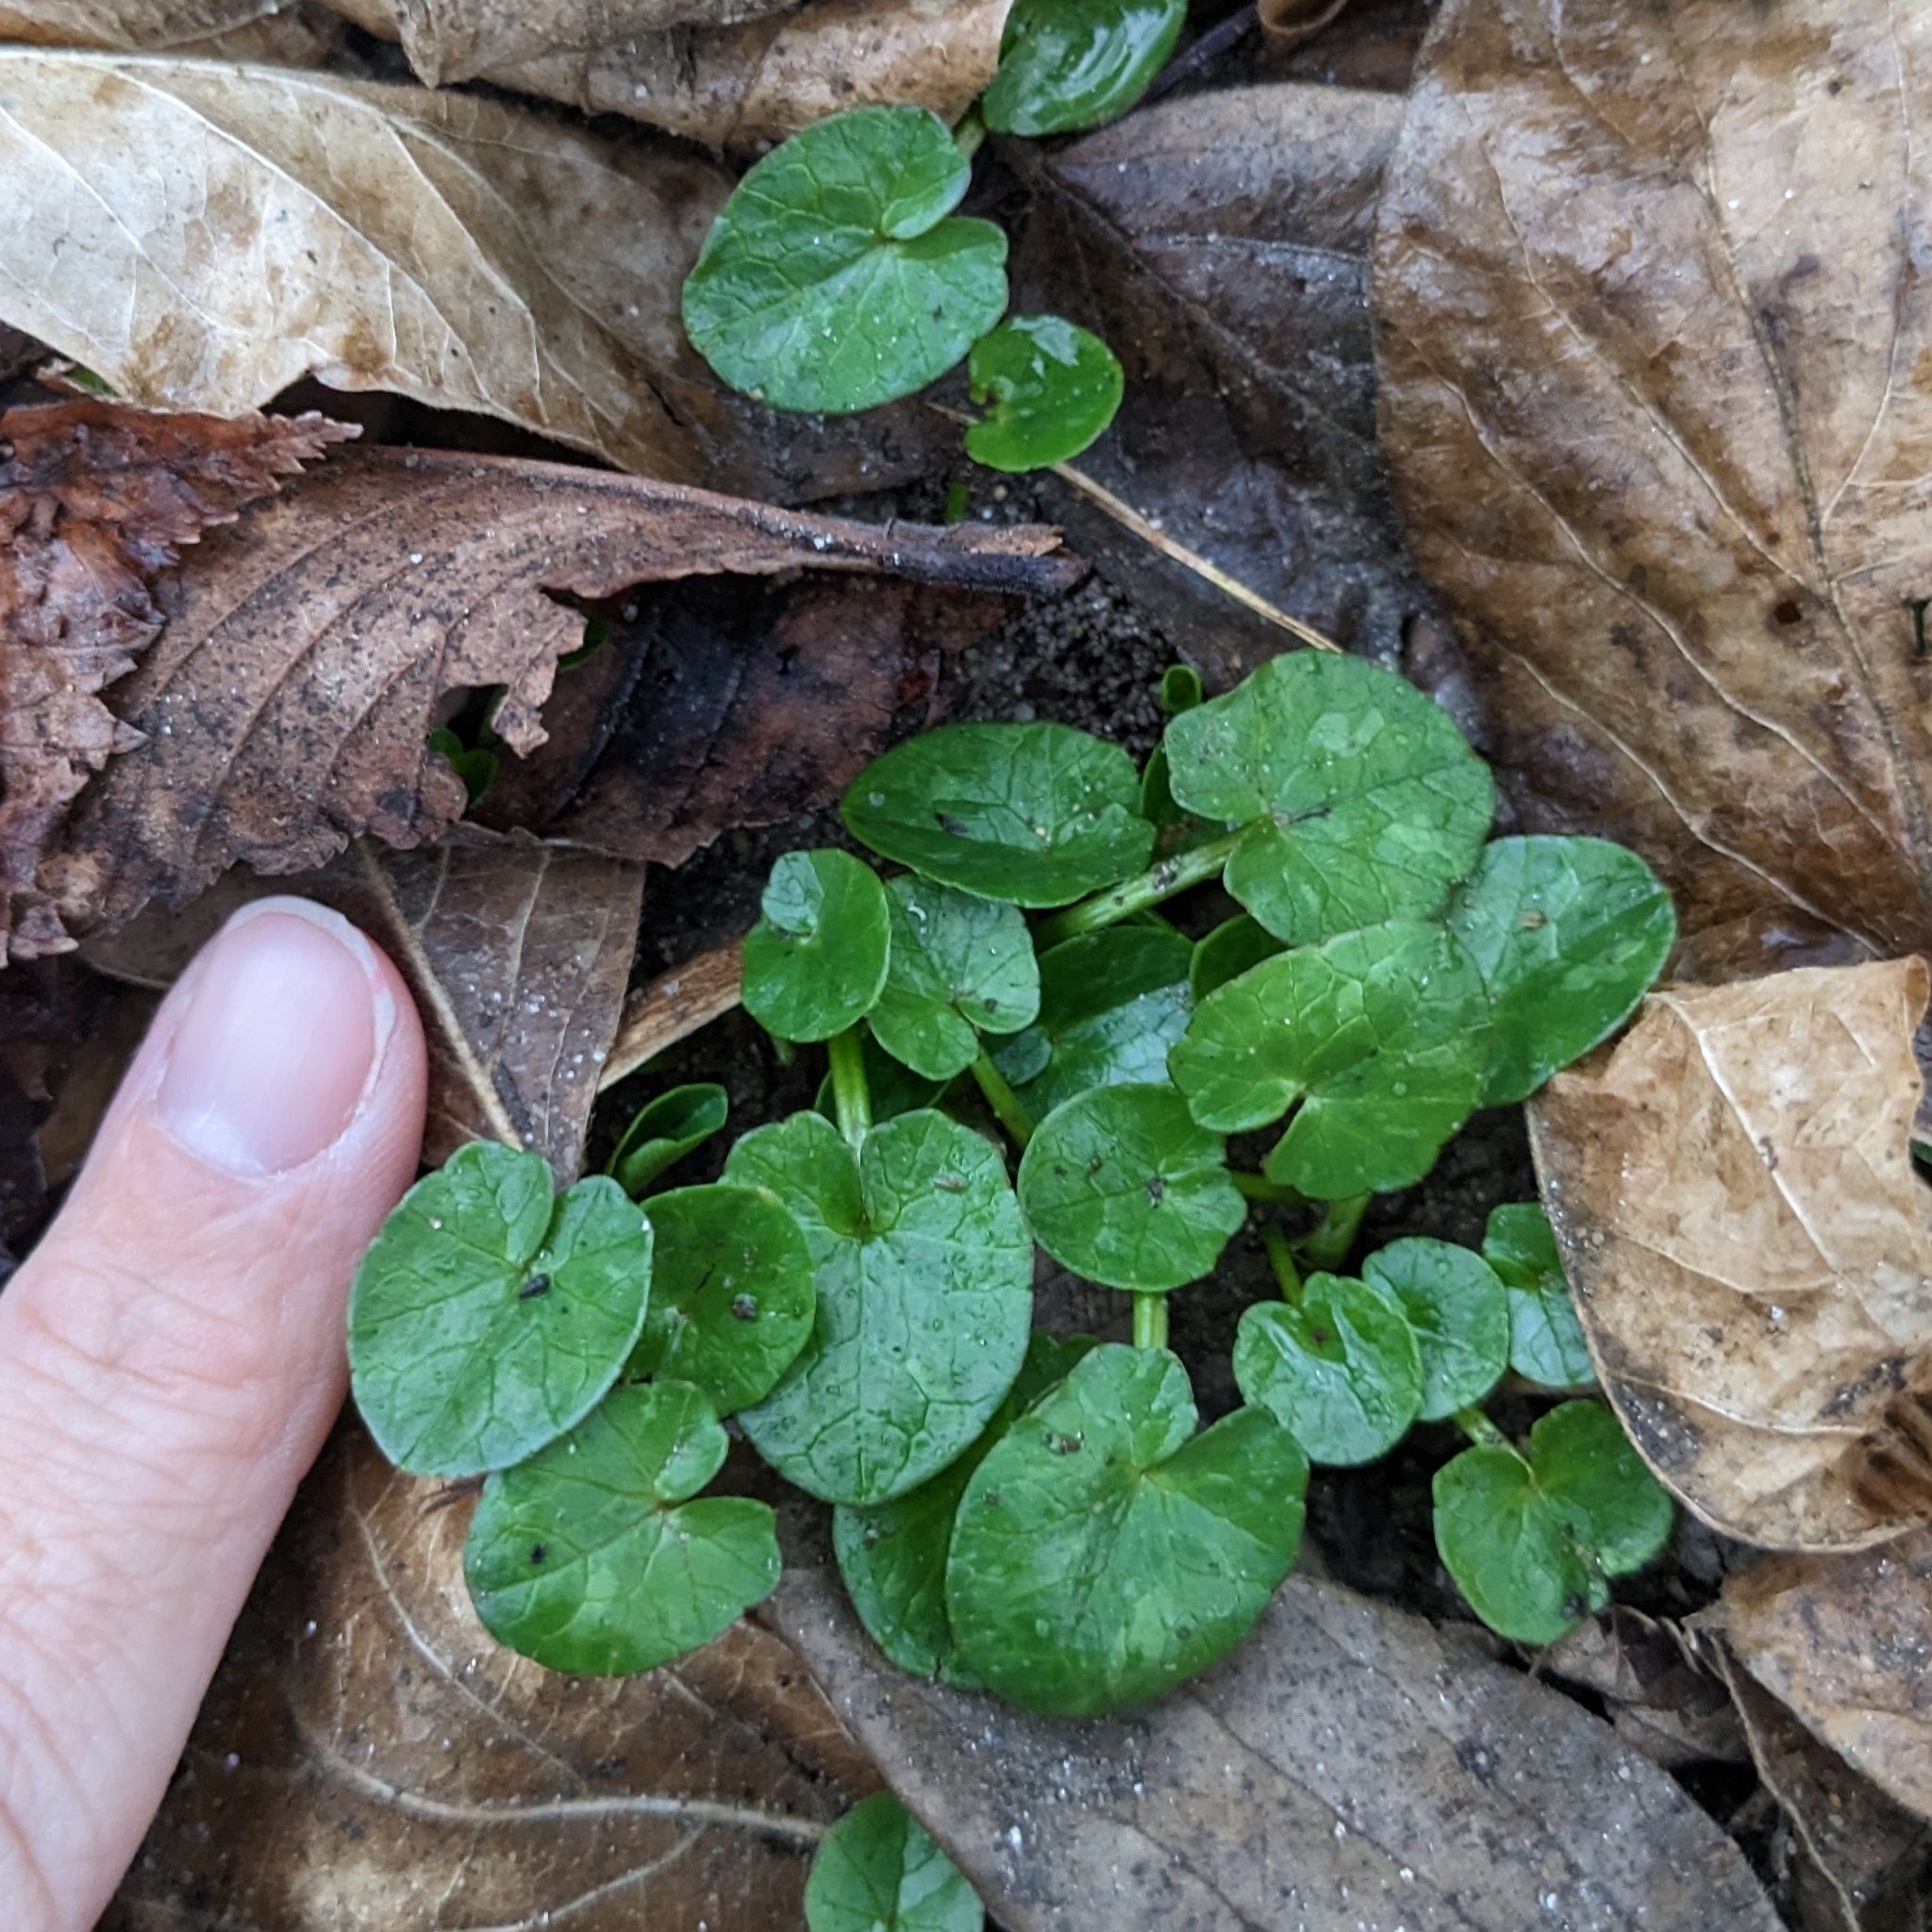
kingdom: Plantae
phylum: Tracheophyta
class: Magnoliopsida
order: Ranunculales
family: Ranunculaceae
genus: Ficaria
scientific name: Ficaria verna
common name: Lesser celandine
